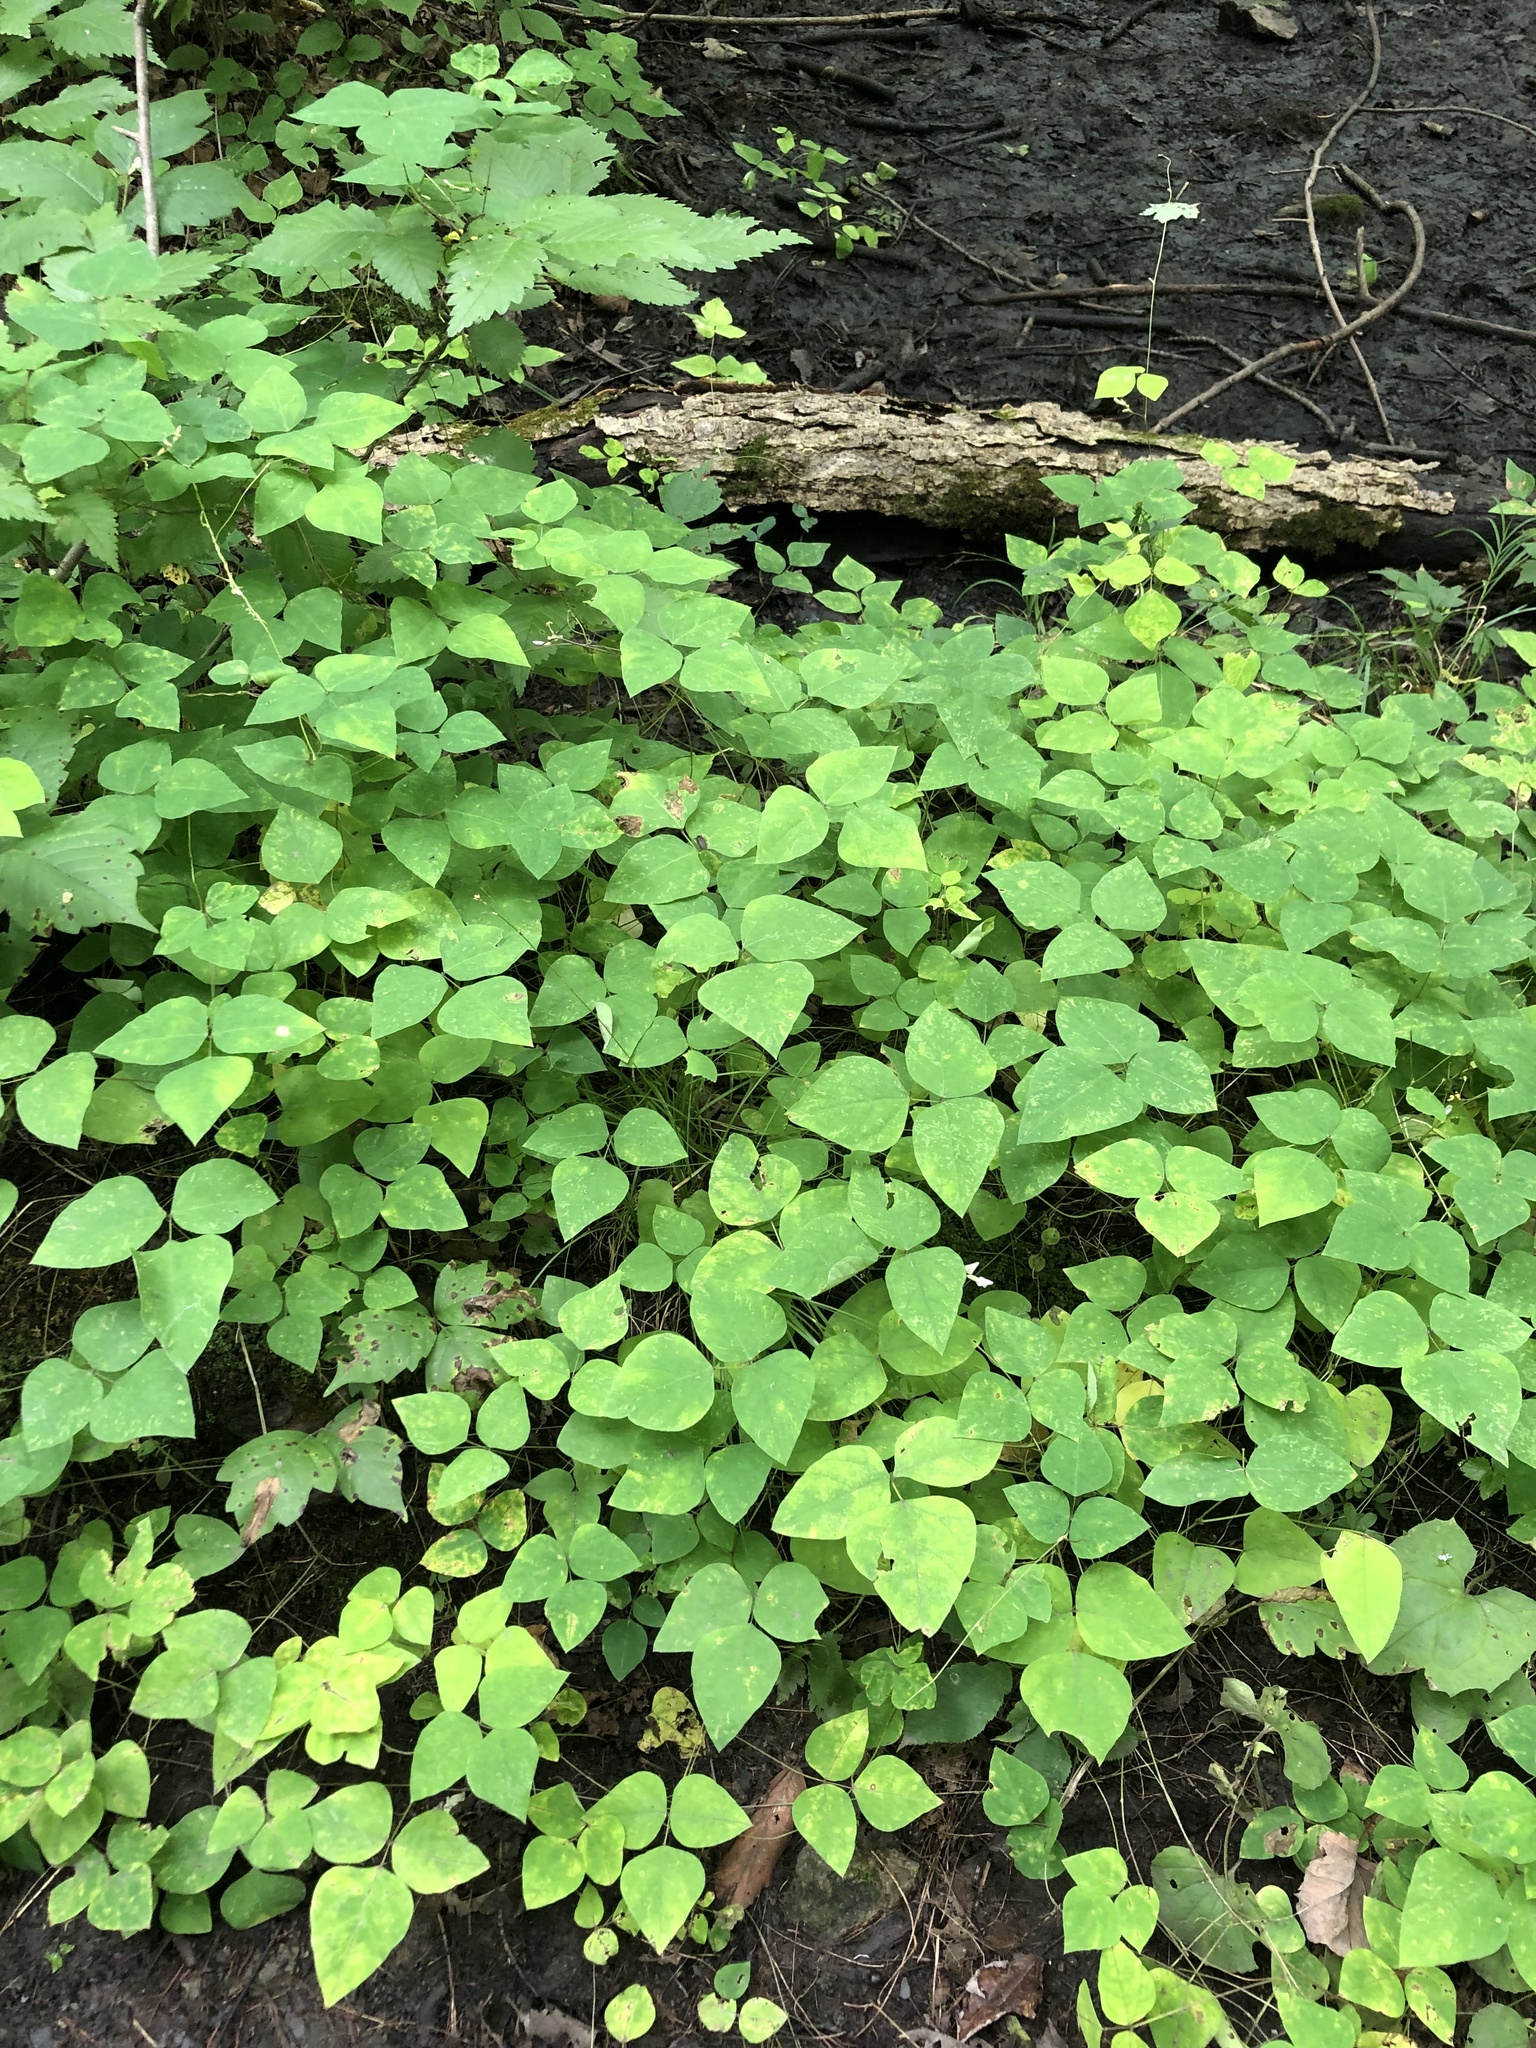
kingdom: Plantae
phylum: Tracheophyta
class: Magnoliopsida
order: Fabales
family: Fabaceae
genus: Amphicarpaea
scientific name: Amphicarpaea bracteata
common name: American hog peanut
